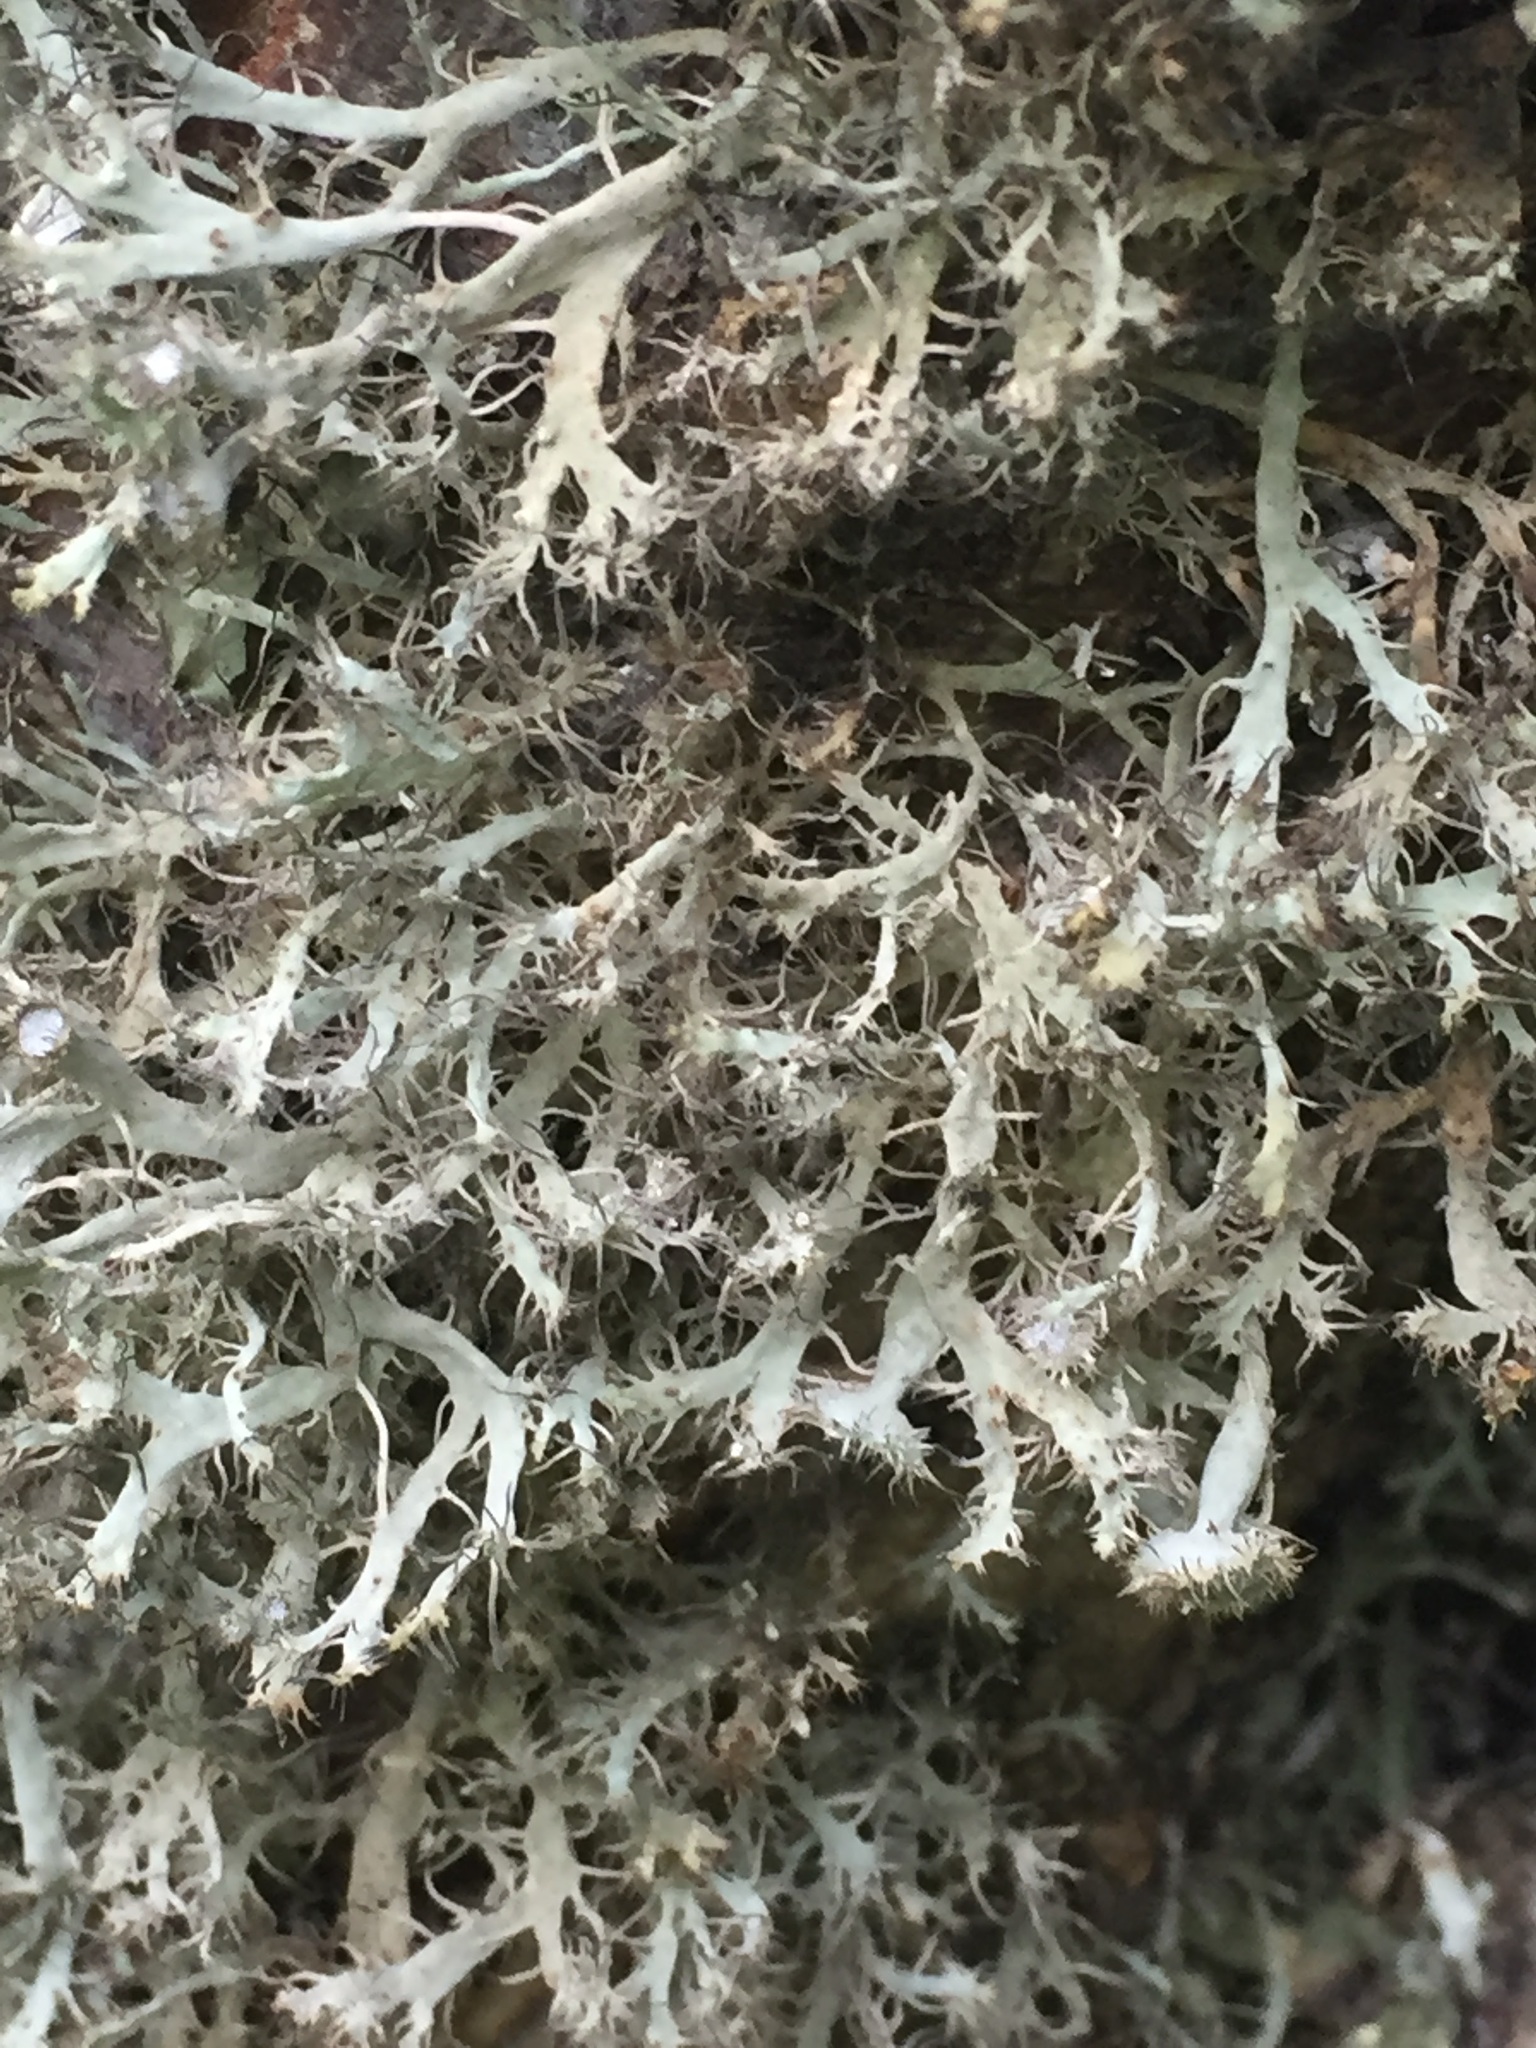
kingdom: Fungi
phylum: Ascomycota
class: Lecanoromycetes
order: Caliciales
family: Physciaceae
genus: Anaptychia
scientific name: Anaptychia ciliaris
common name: Great ciliated lichen
